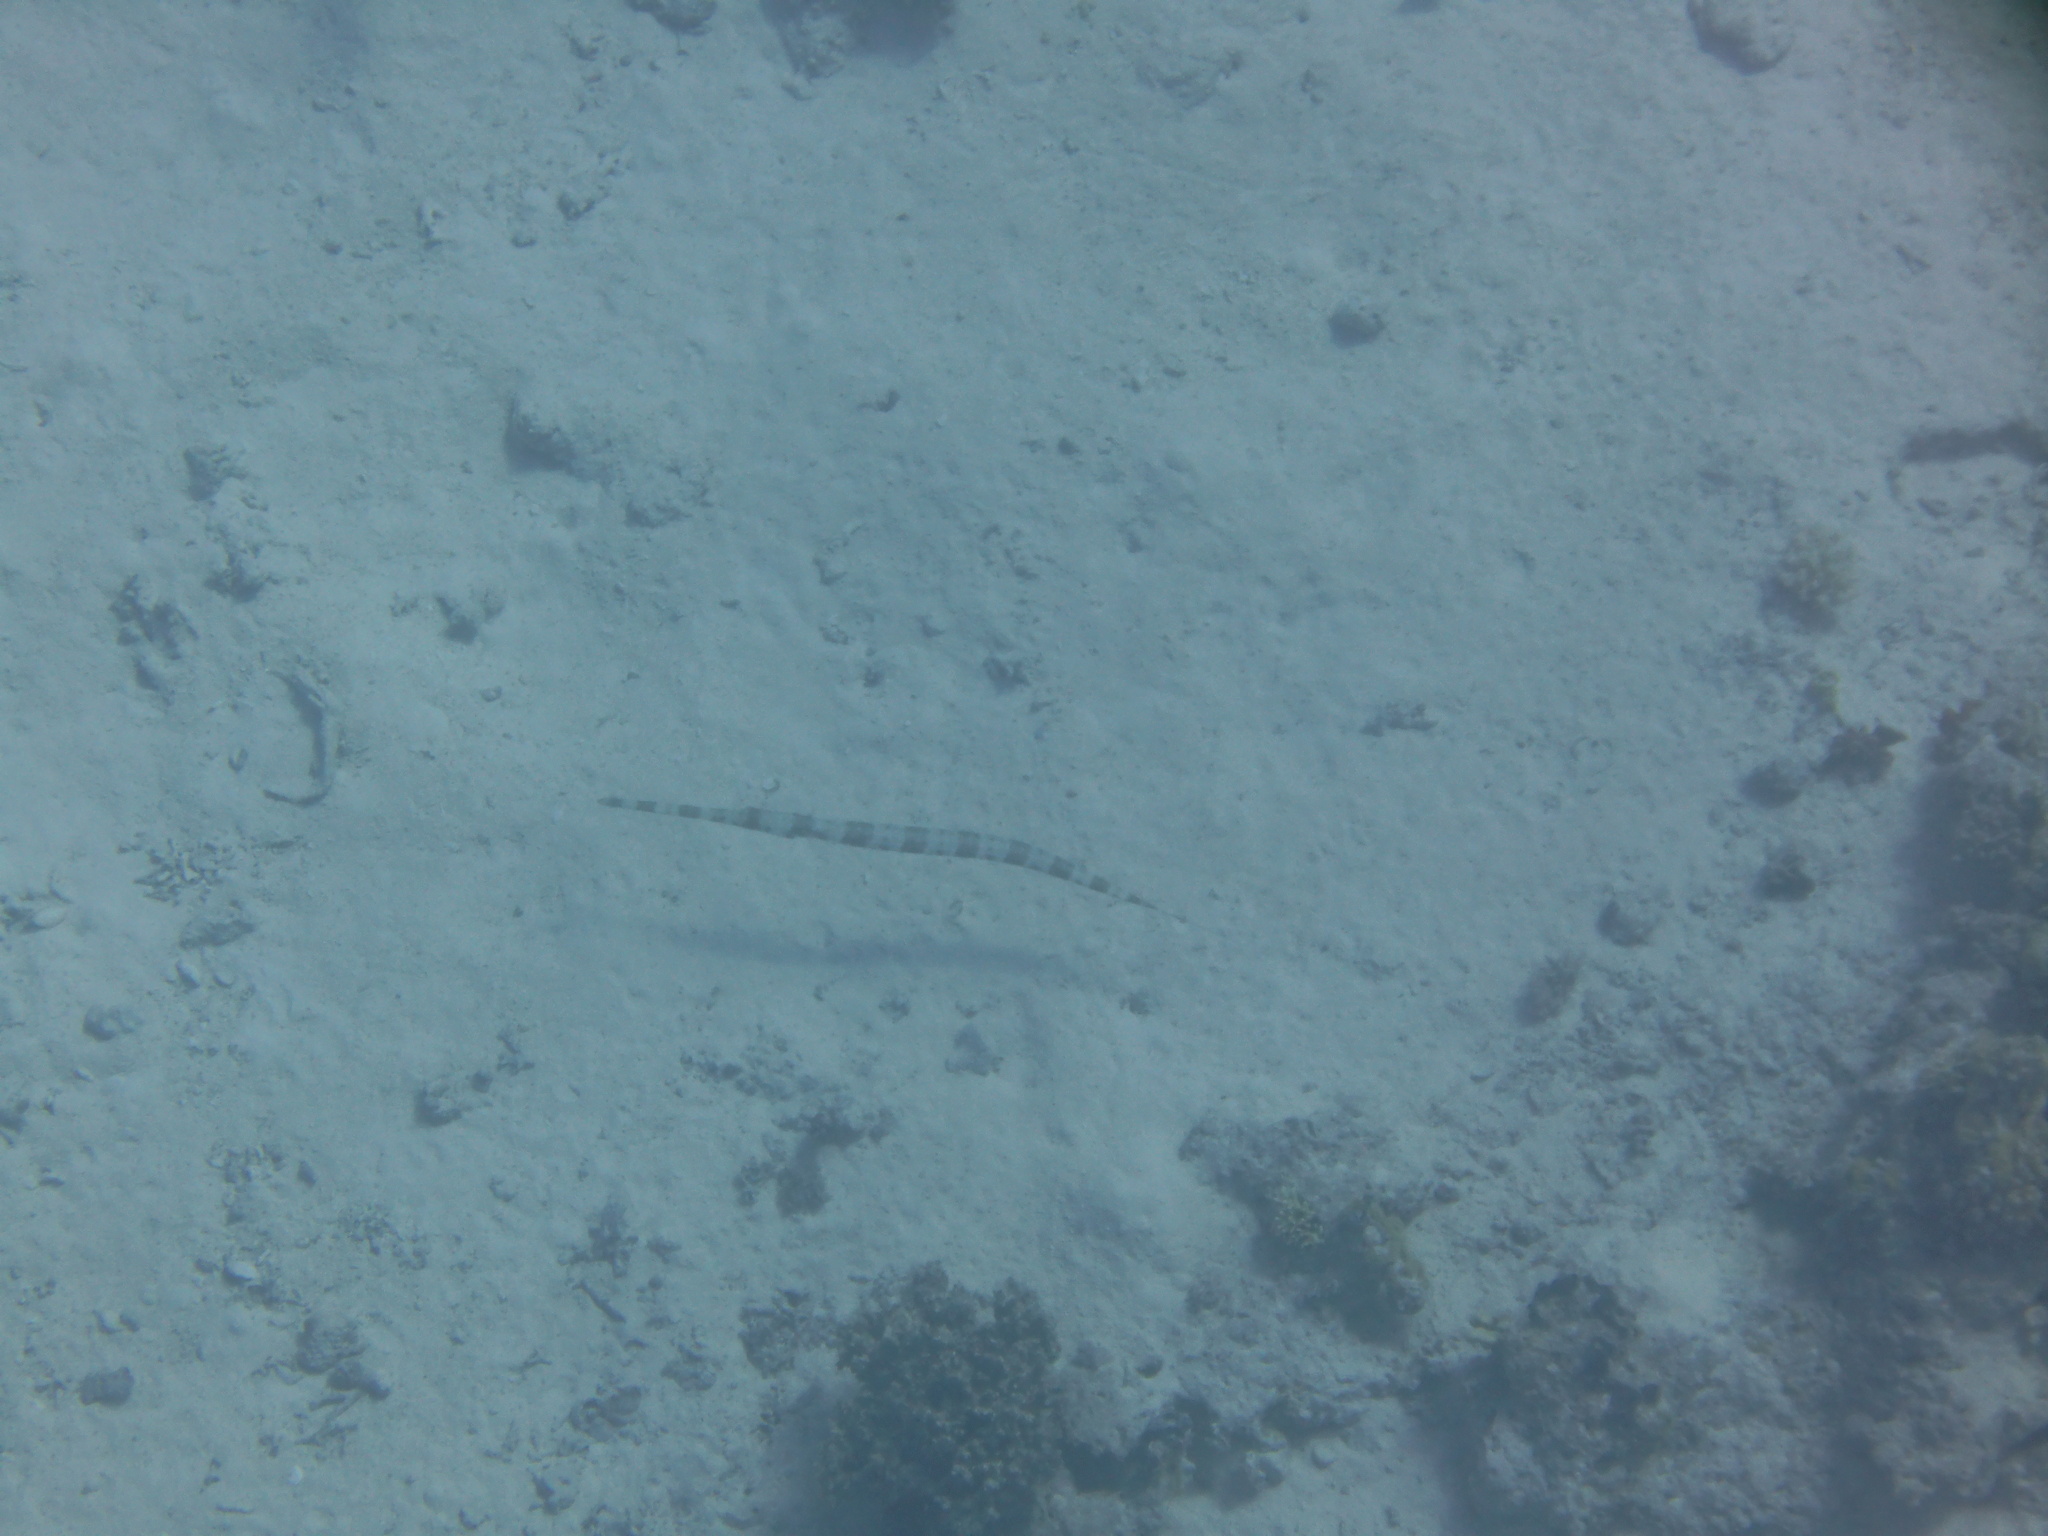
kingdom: Animalia
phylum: Chordata
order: Syngnathiformes
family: Fistulariidae
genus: Fistularia
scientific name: Fistularia commersonii
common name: Bluespotted cornetfish
